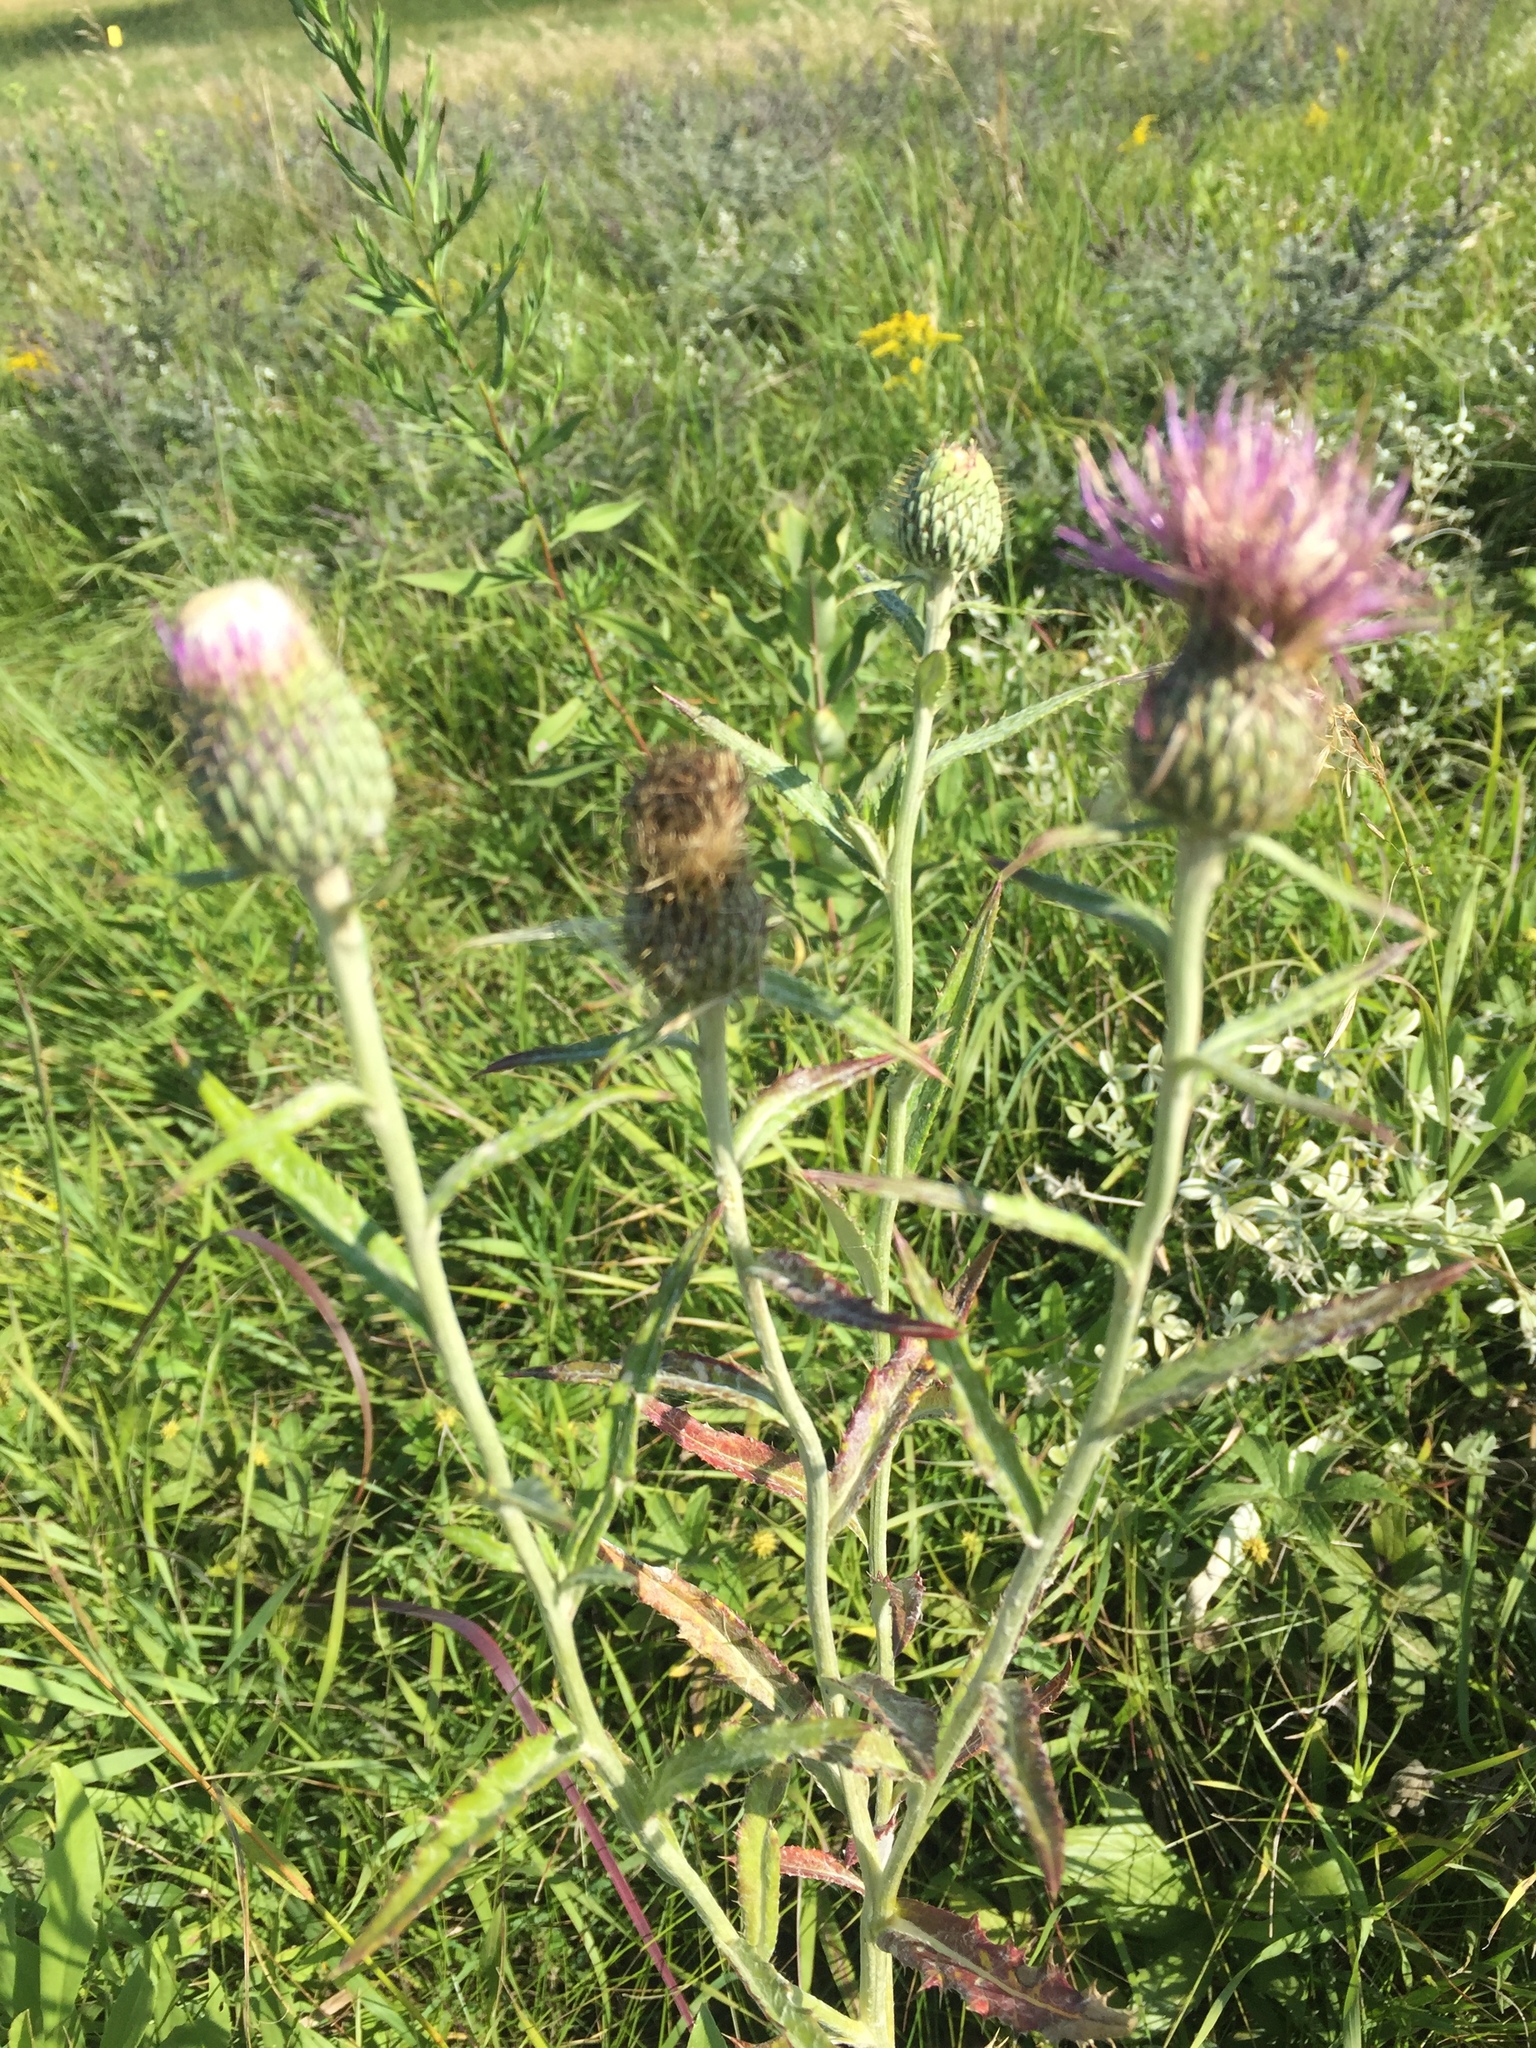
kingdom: Plantae
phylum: Tracheophyta
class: Magnoliopsida
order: Asterales
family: Asteraceae
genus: Cirsium
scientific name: Cirsium flodmanii
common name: Flodman's thistle
